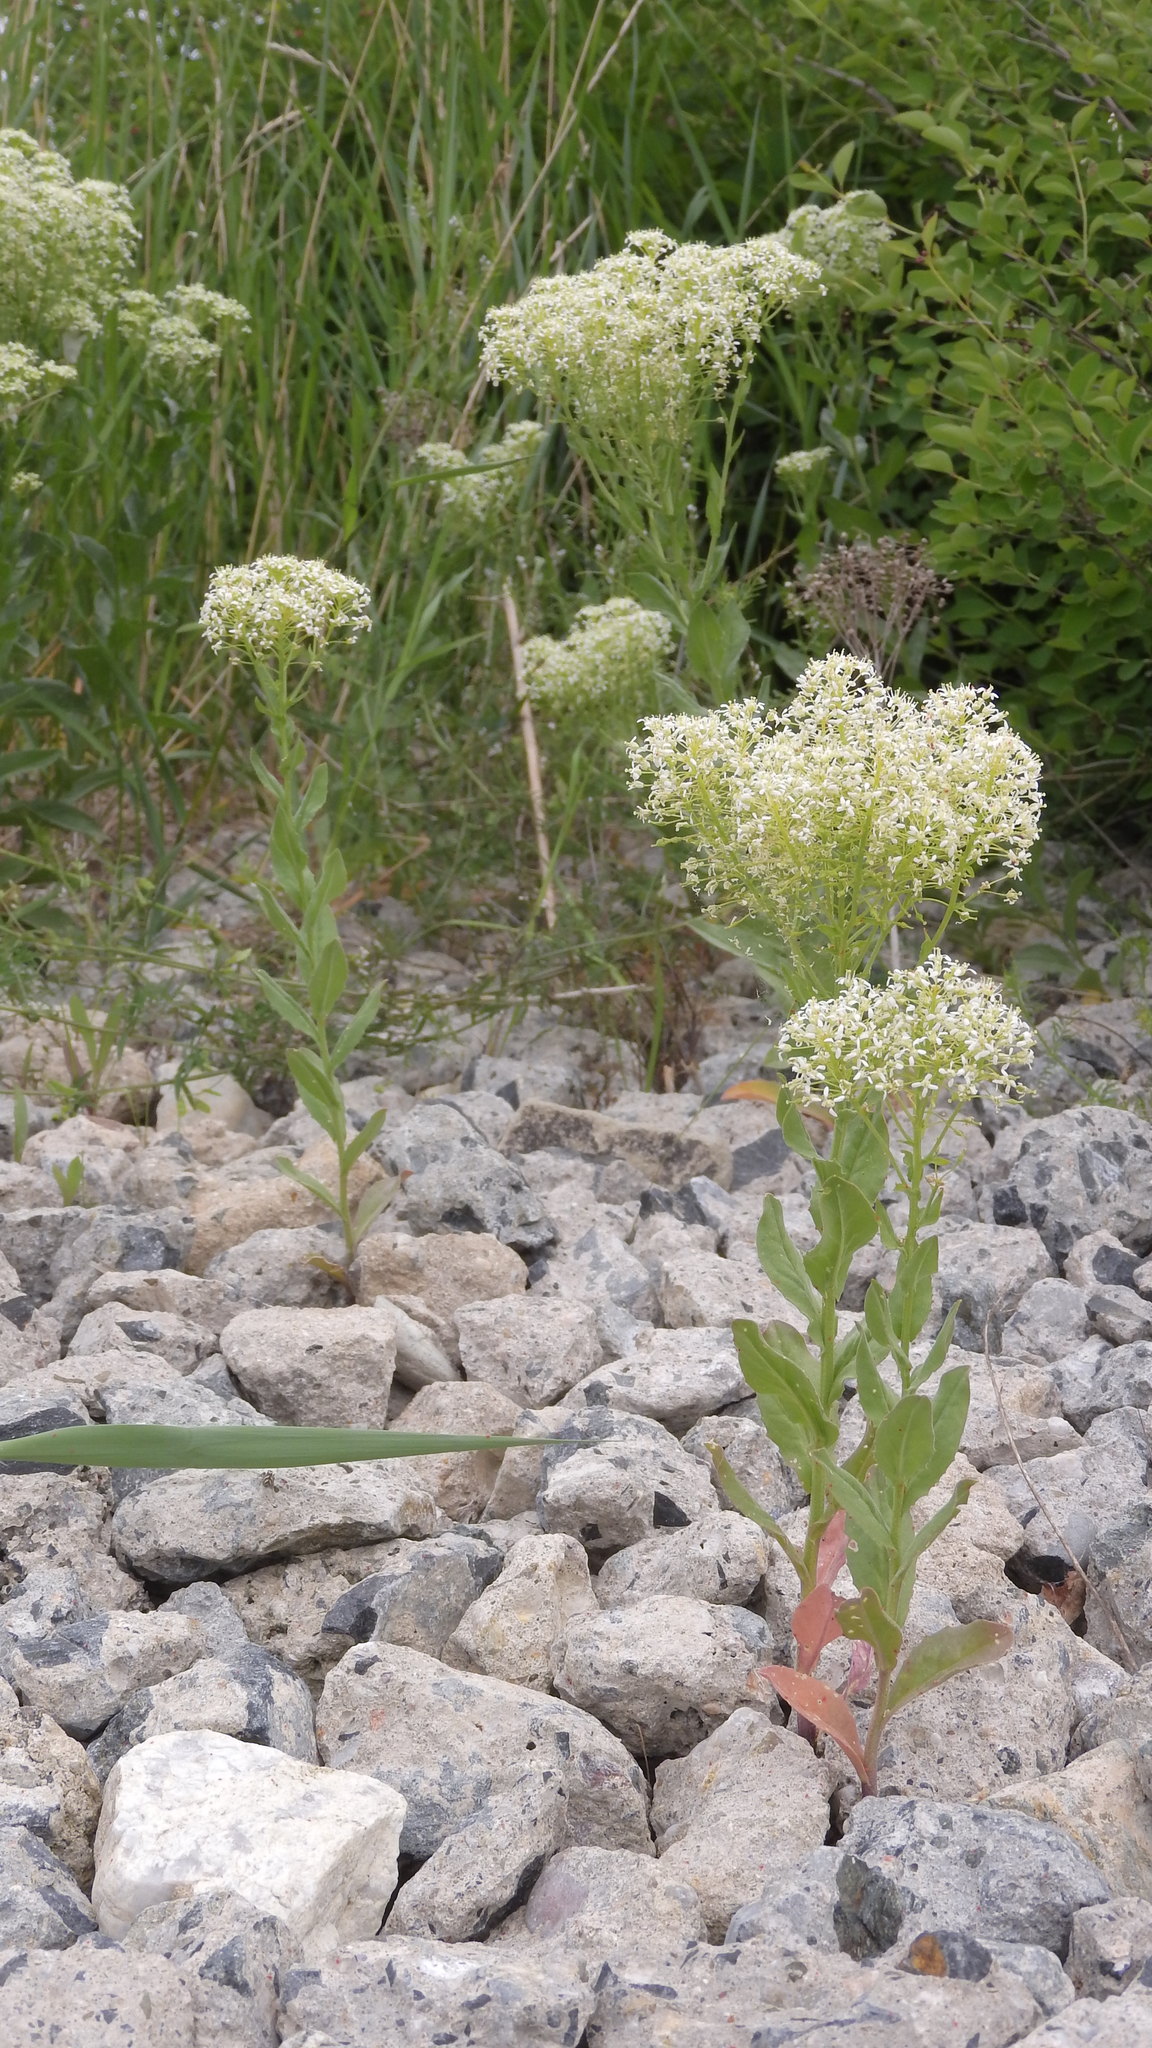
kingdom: Plantae
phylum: Tracheophyta
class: Magnoliopsida
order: Brassicales
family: Brassicaceae
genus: Lepidium
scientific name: Lepidium draba
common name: Hoary cress
